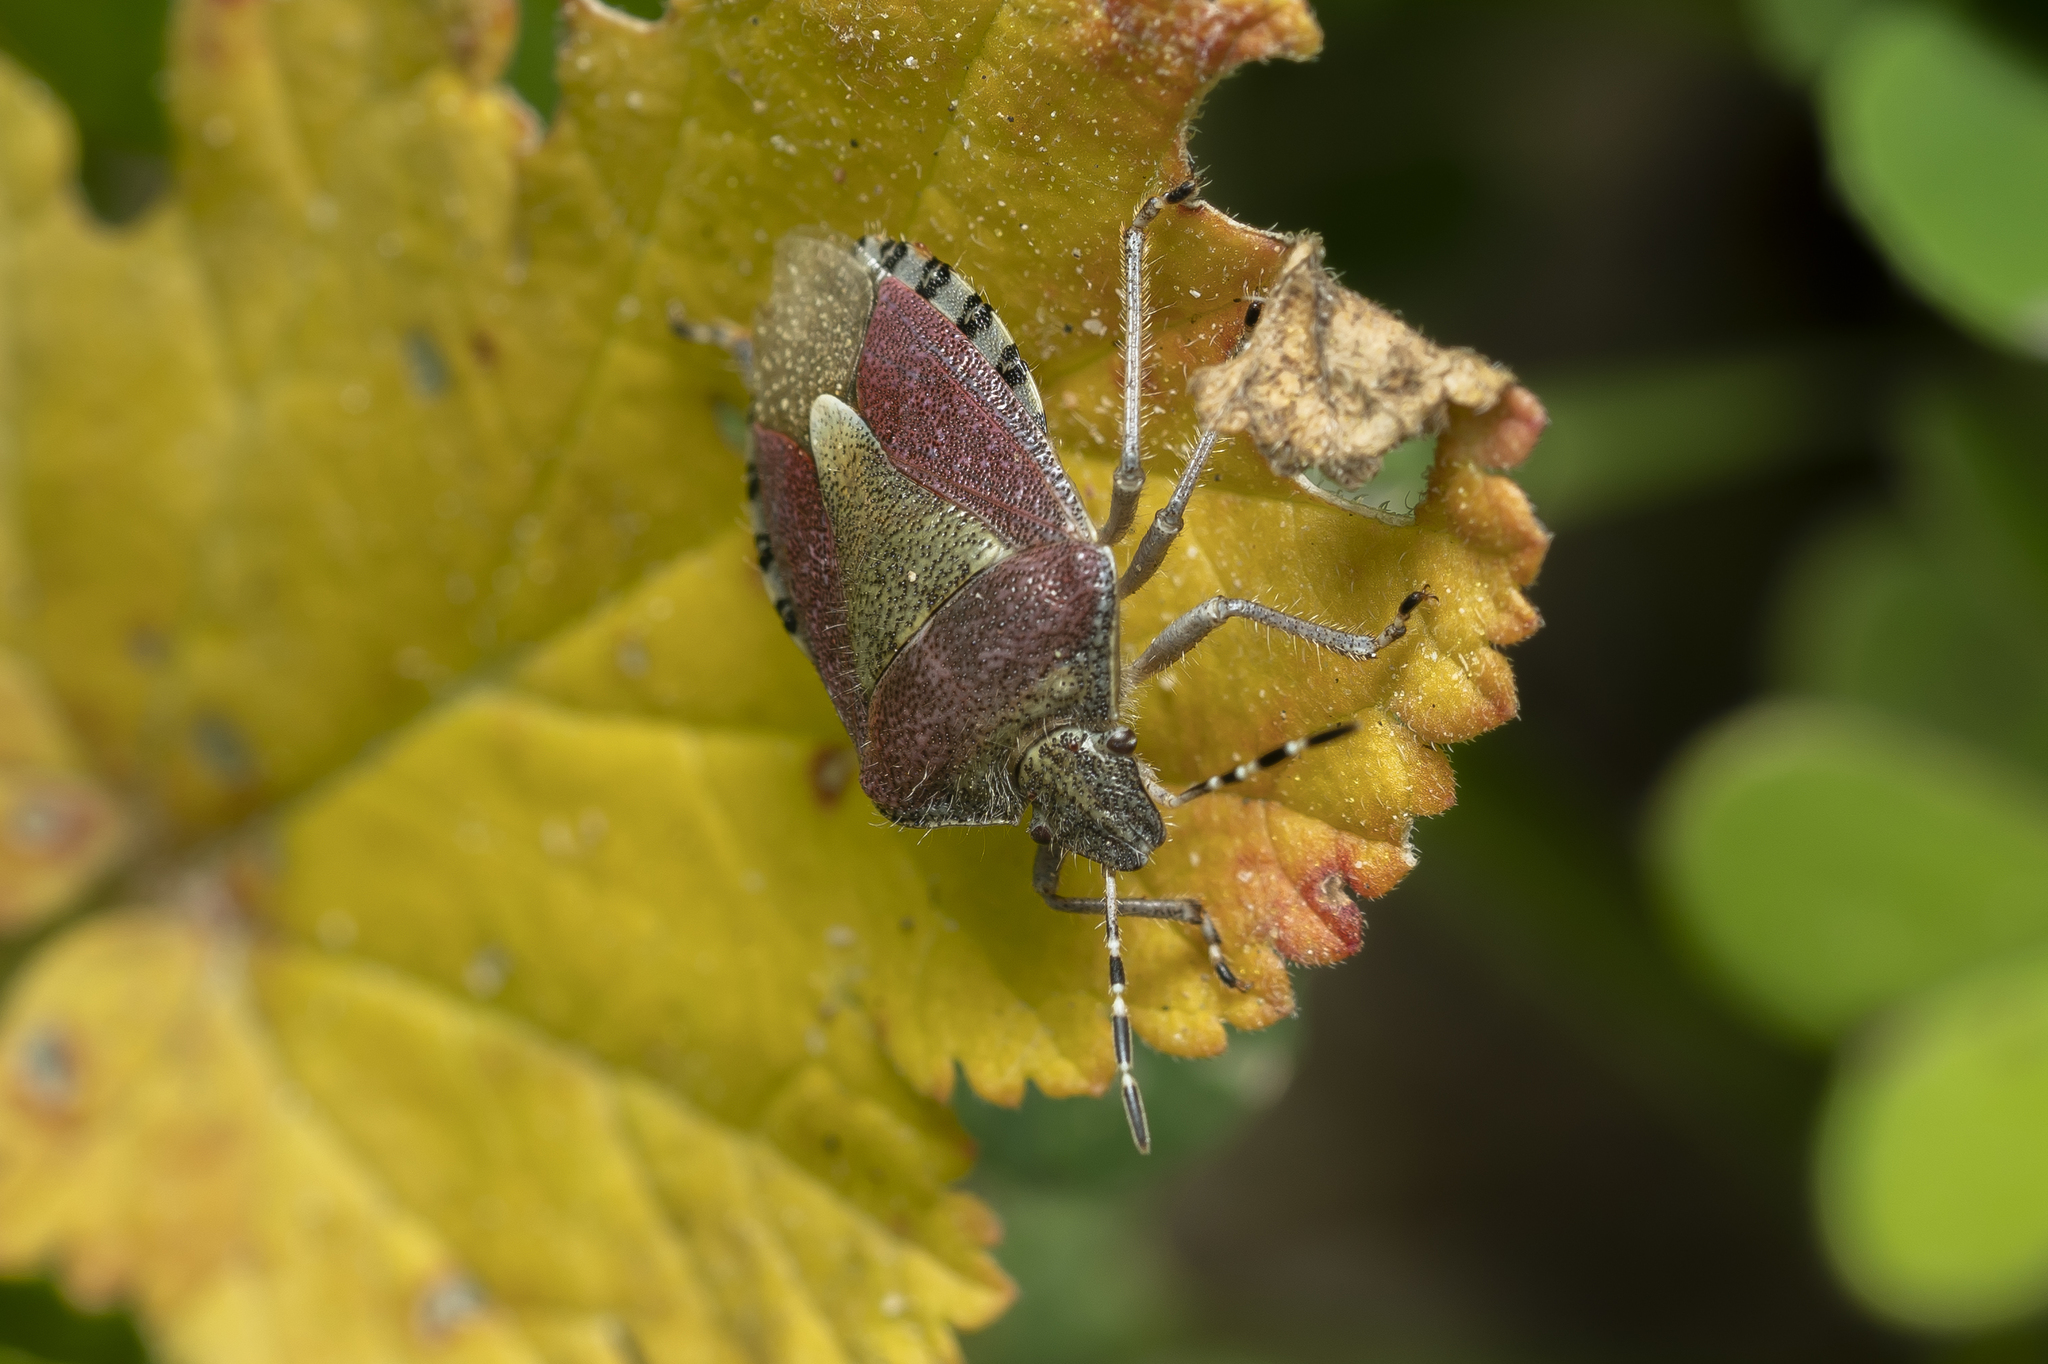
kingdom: Animalia
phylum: Arthropoda
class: Insecta
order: Hemiptera
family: Pentatomidae
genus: Dolycoris
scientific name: Dolycoris baccarum
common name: Sloe bug
